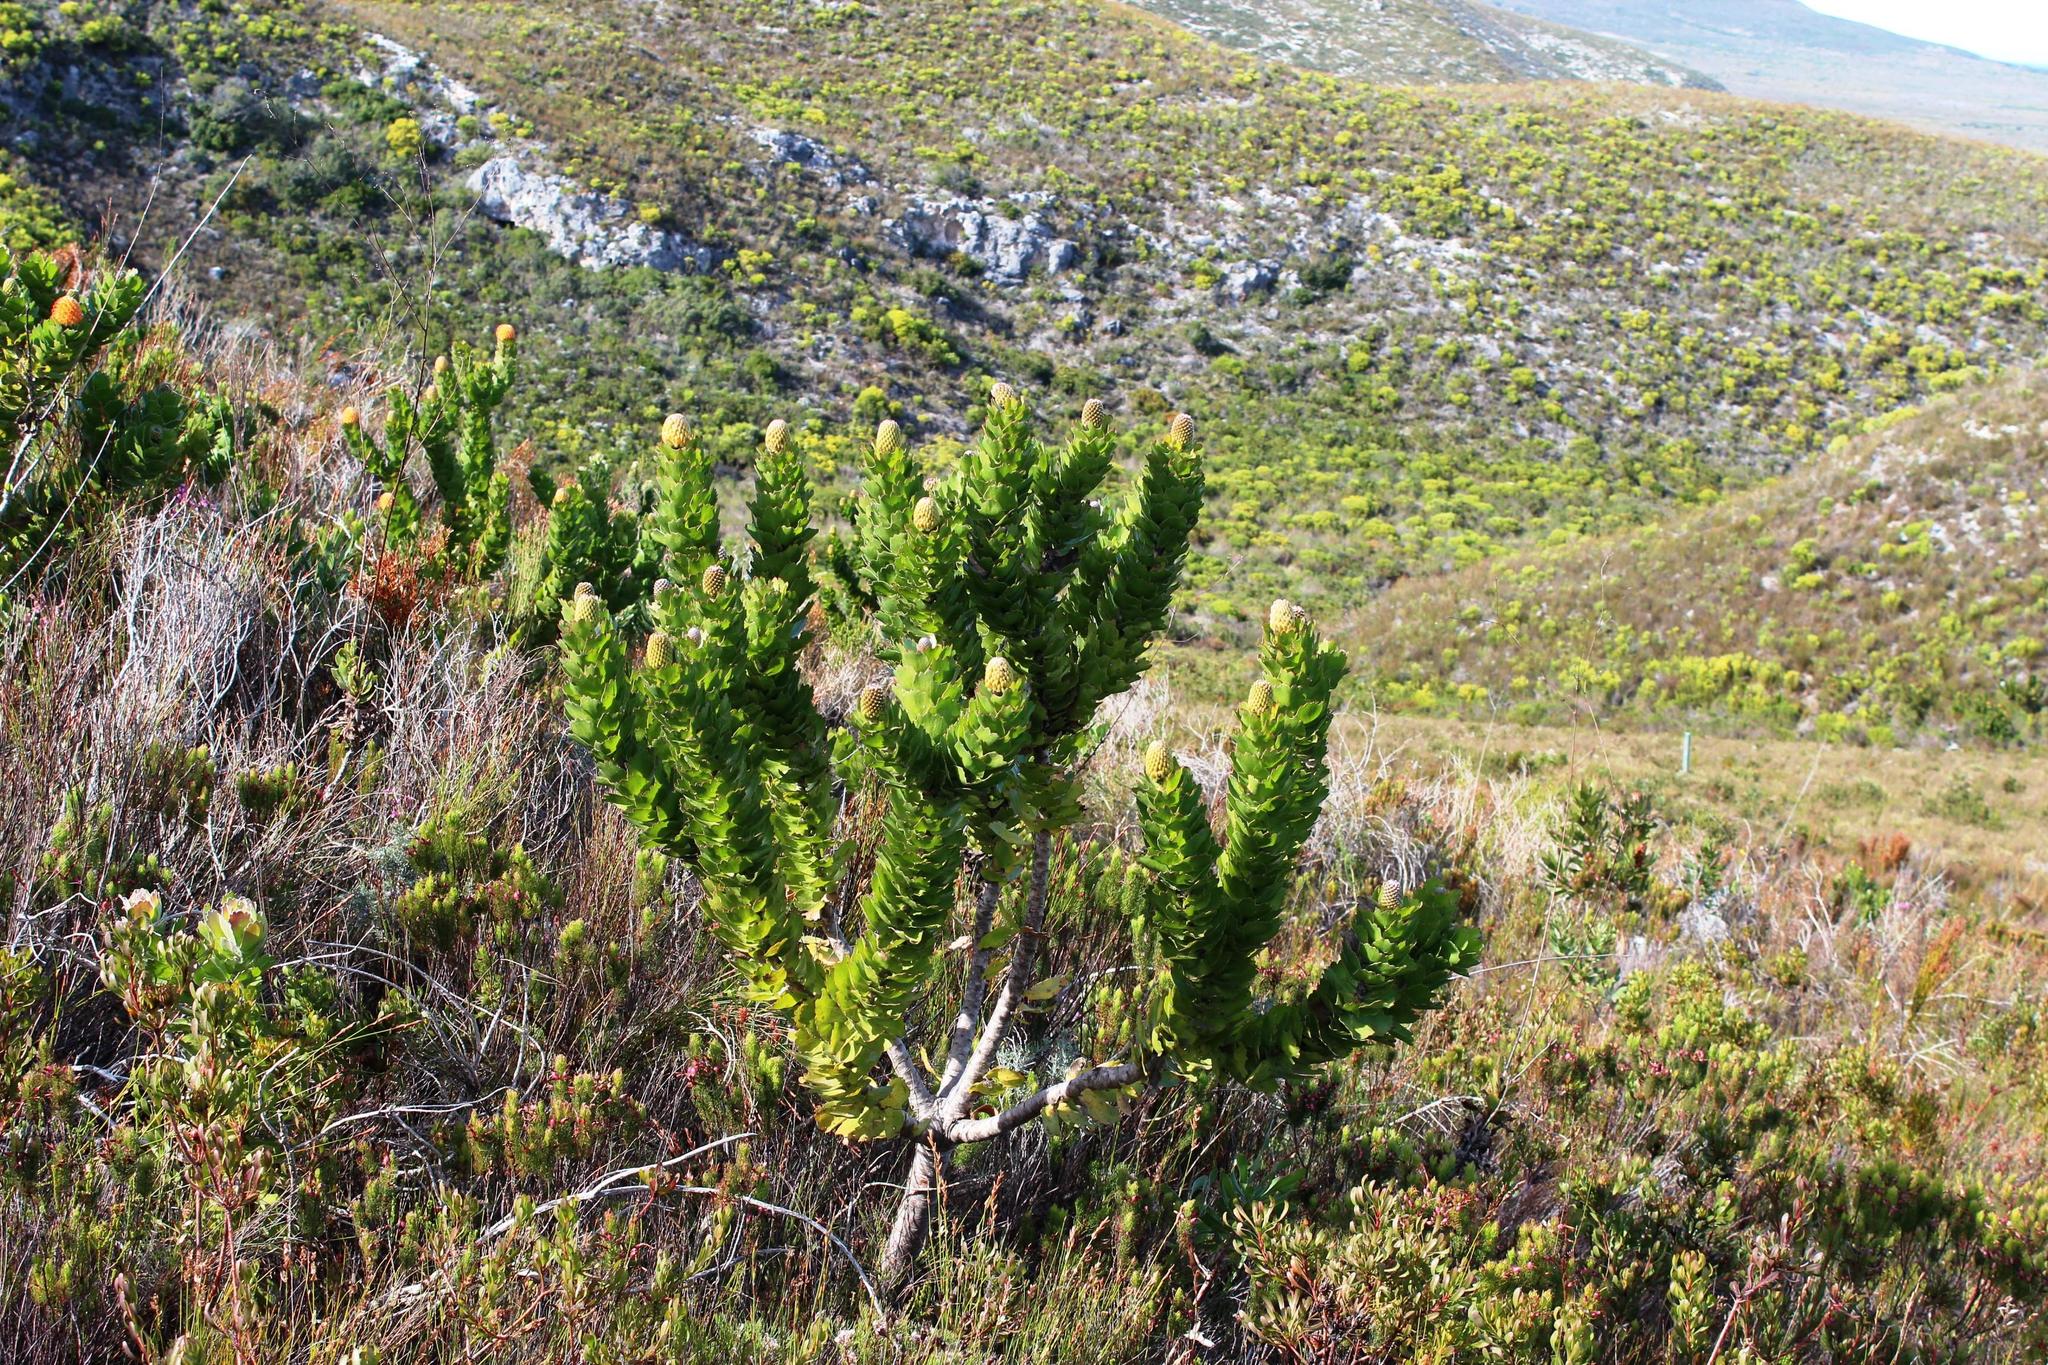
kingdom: Plantae
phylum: Tracheophyta
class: Magnoliopsida
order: Proteales
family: Proteaceae
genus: Leucospermum
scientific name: Leucospermum patersonii
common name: False tree pincushion
